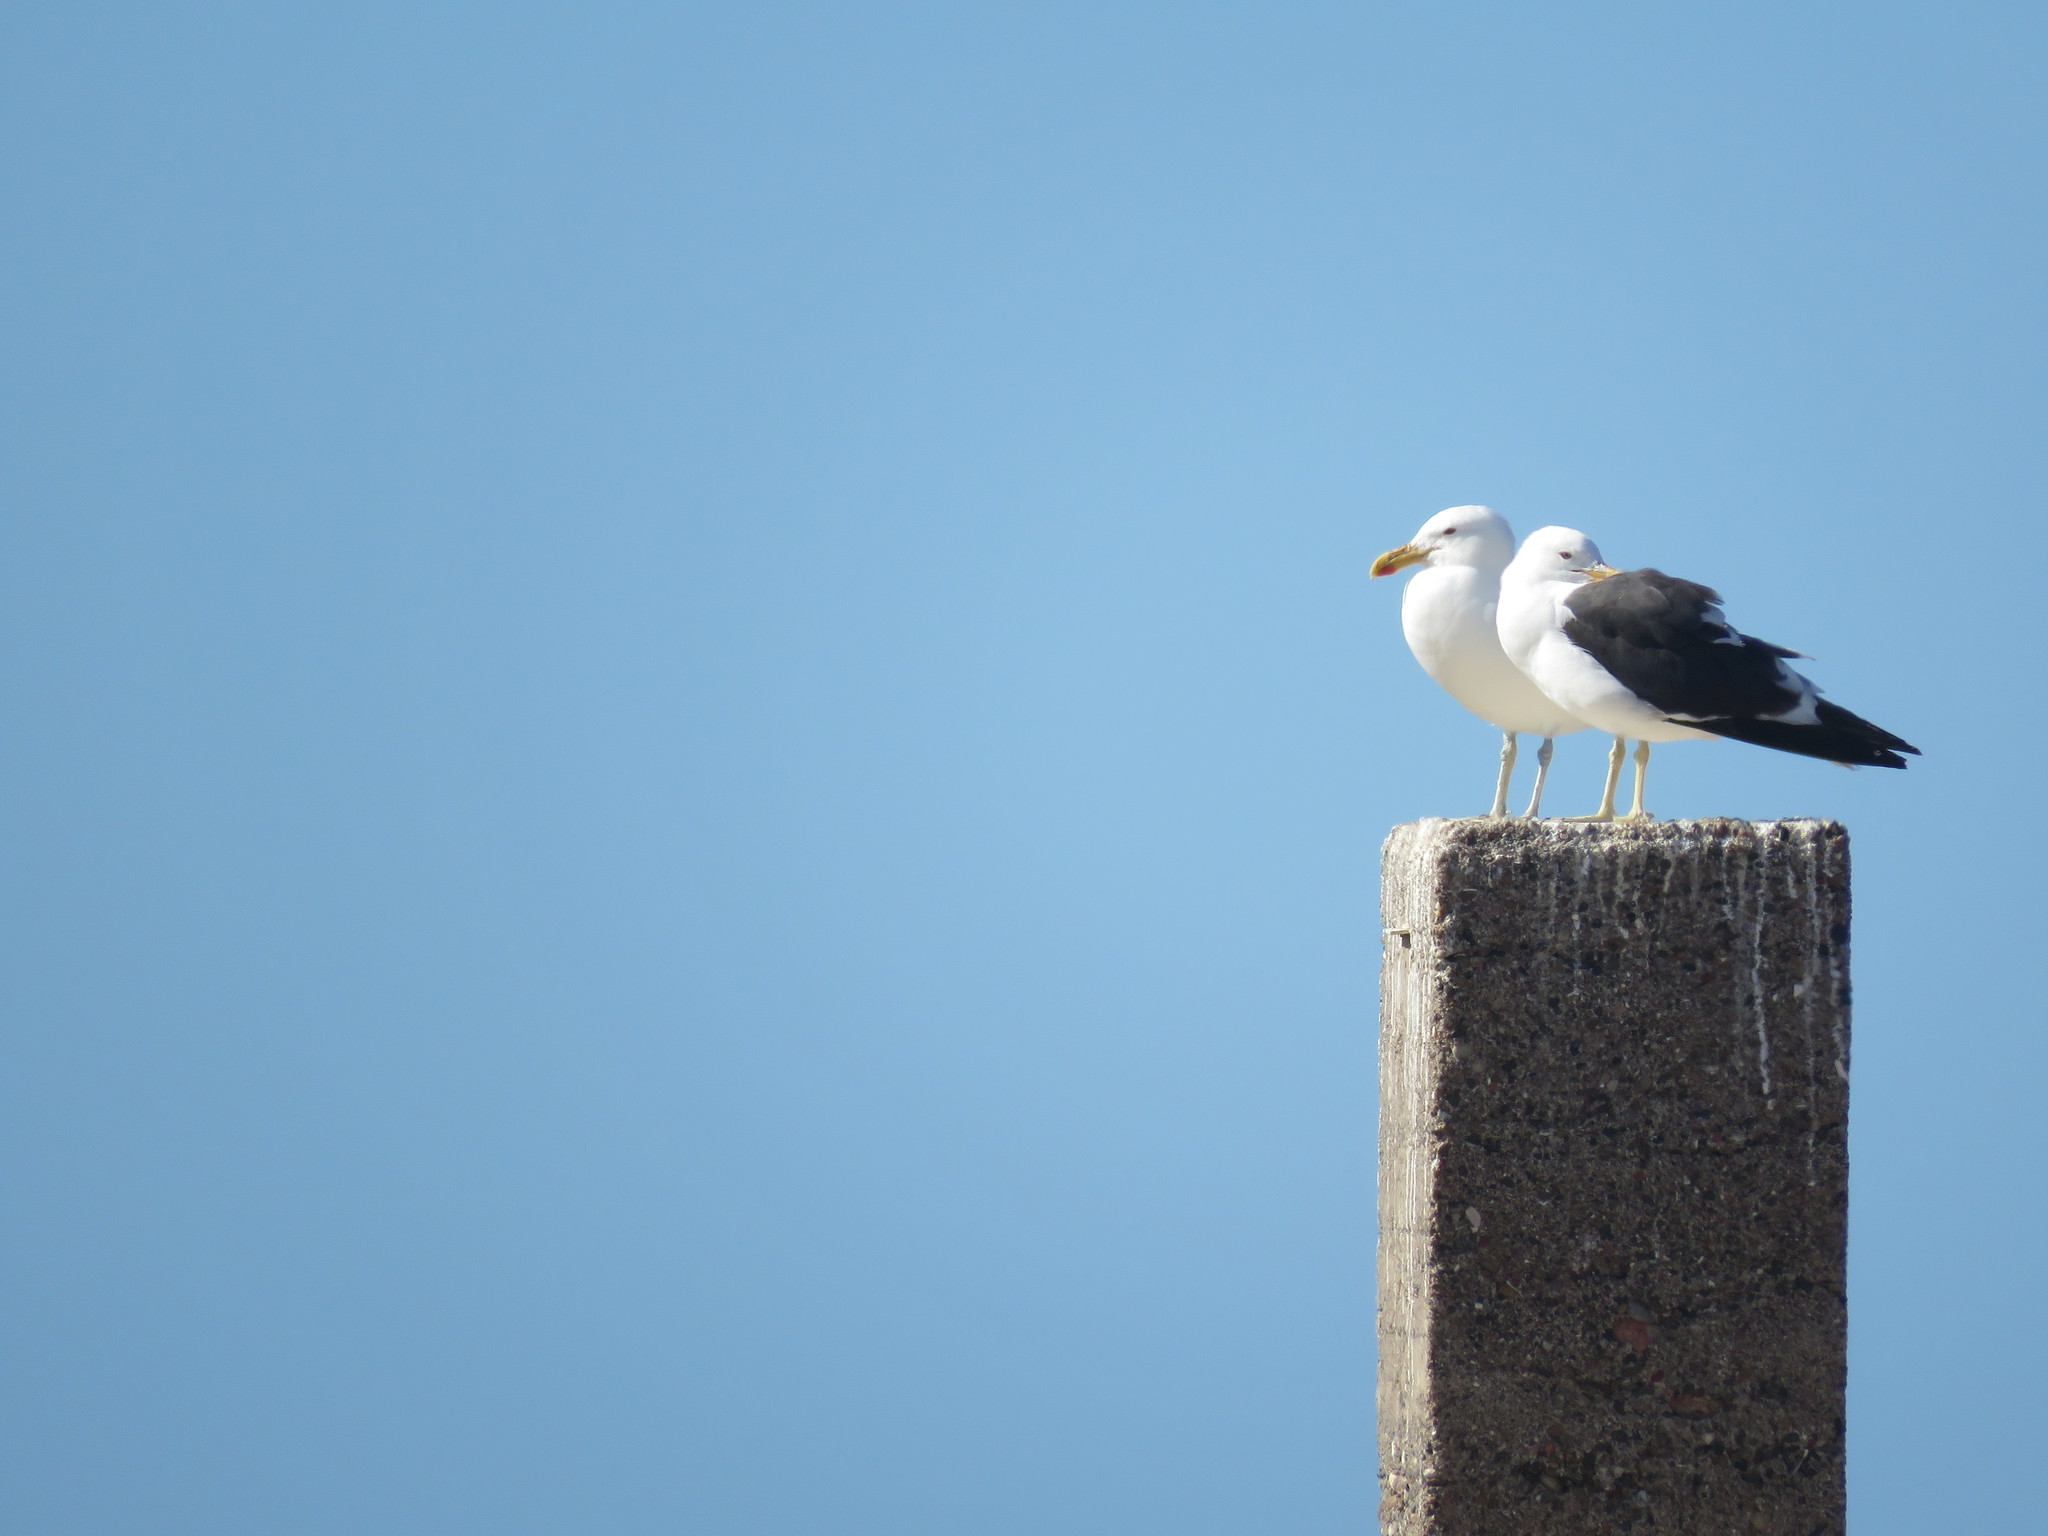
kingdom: Animalia
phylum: Chordata
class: Aves
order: Charadriiformes
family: Laridae
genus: Larus
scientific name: Larus dominicanus
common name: Kelp gull
